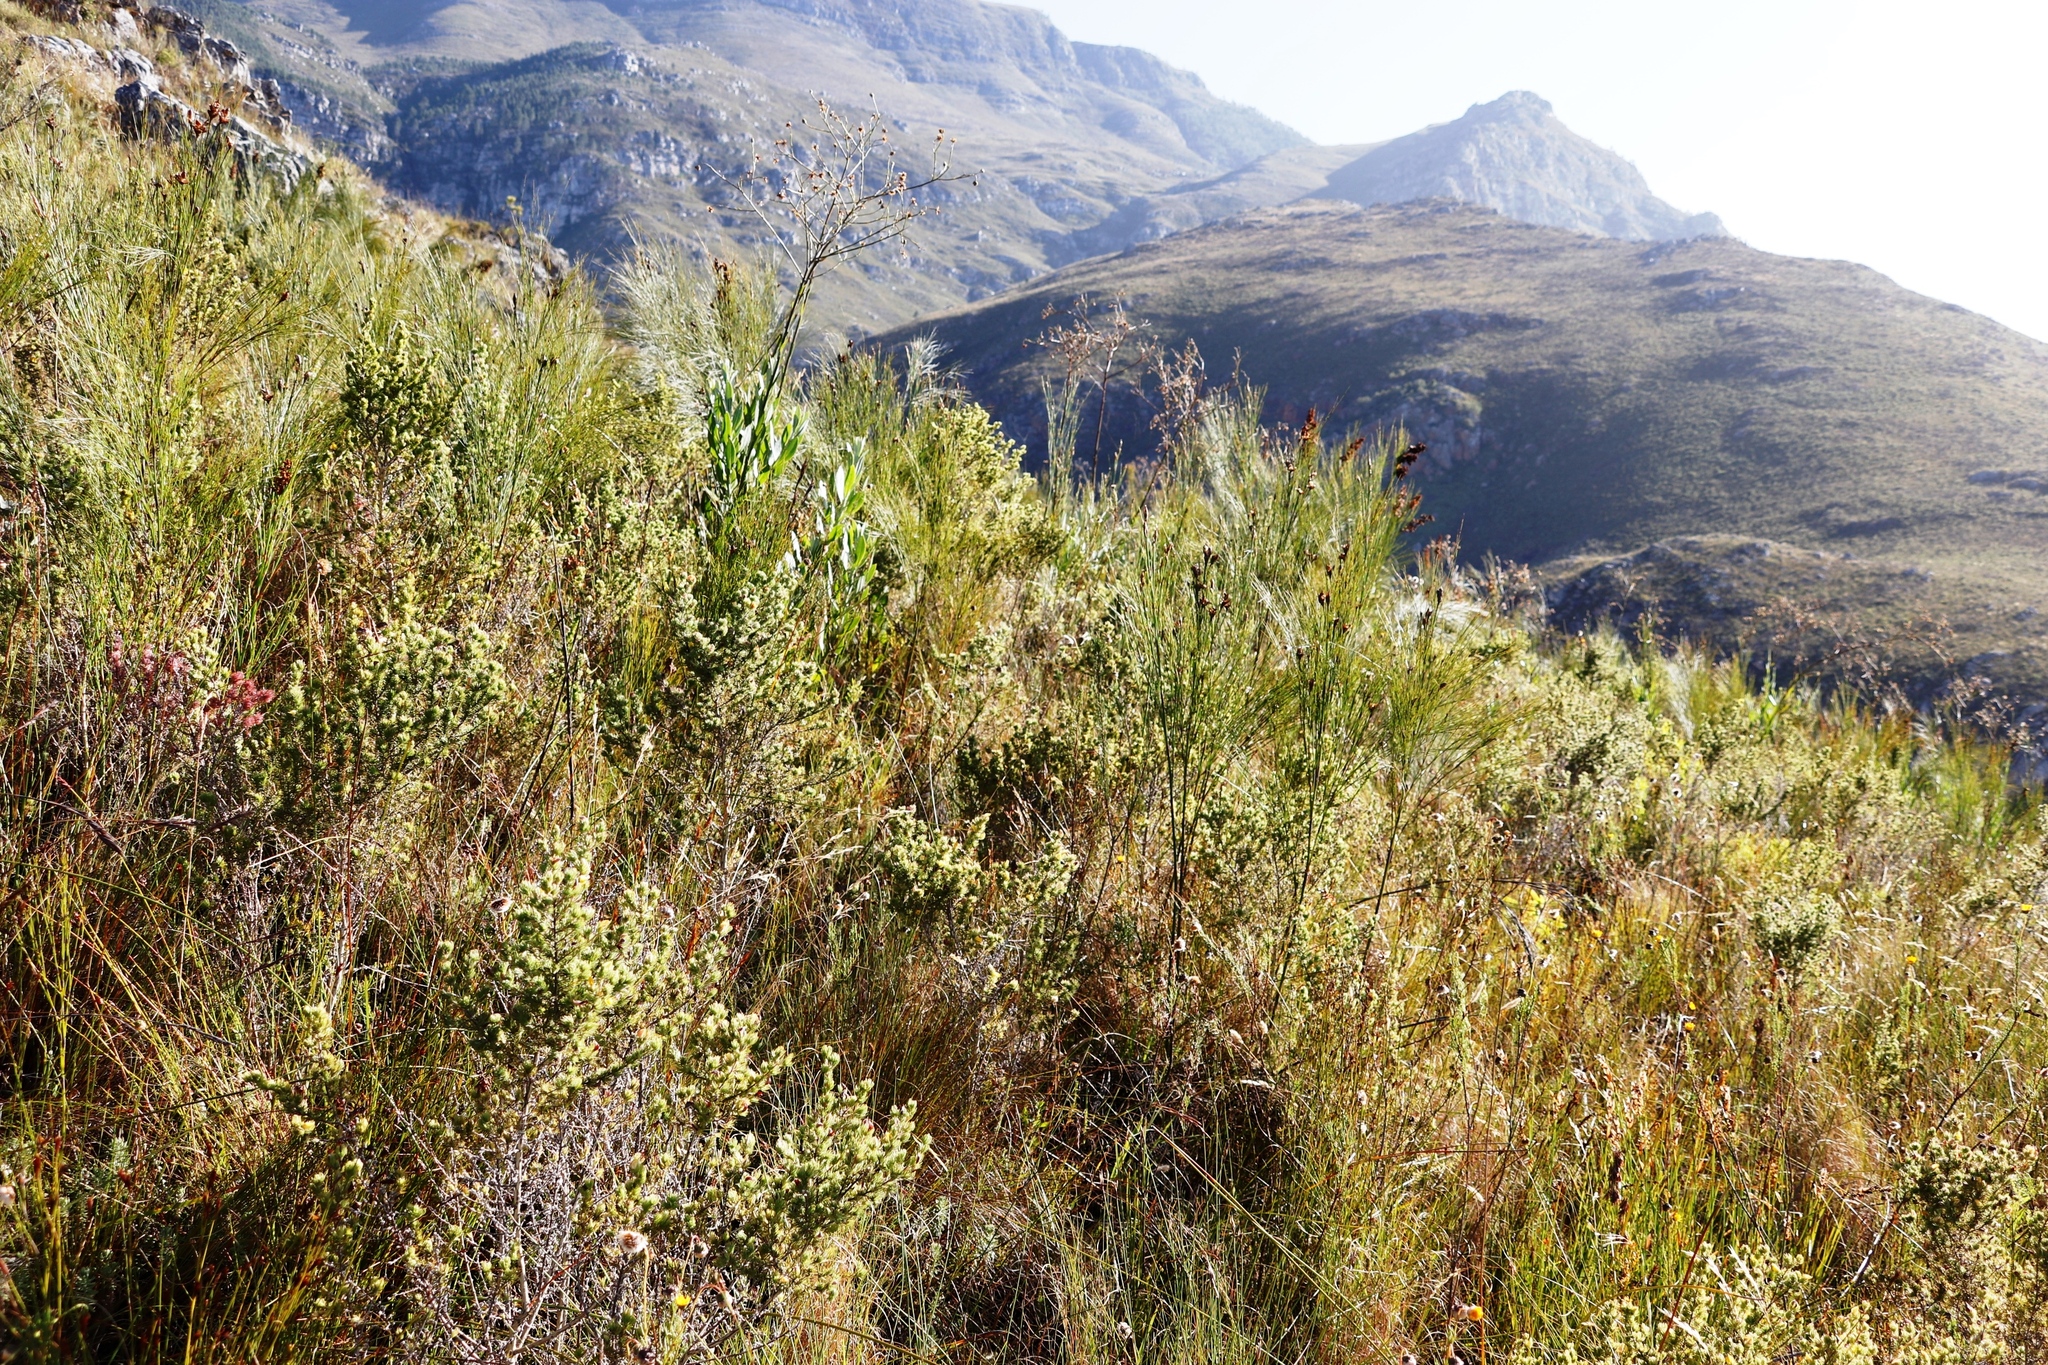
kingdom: Plantae
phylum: Tracheophyta
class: Magnoliopsida
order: Asterales
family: Asteraceae
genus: Othonna
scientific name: Othonna quinquedentata
